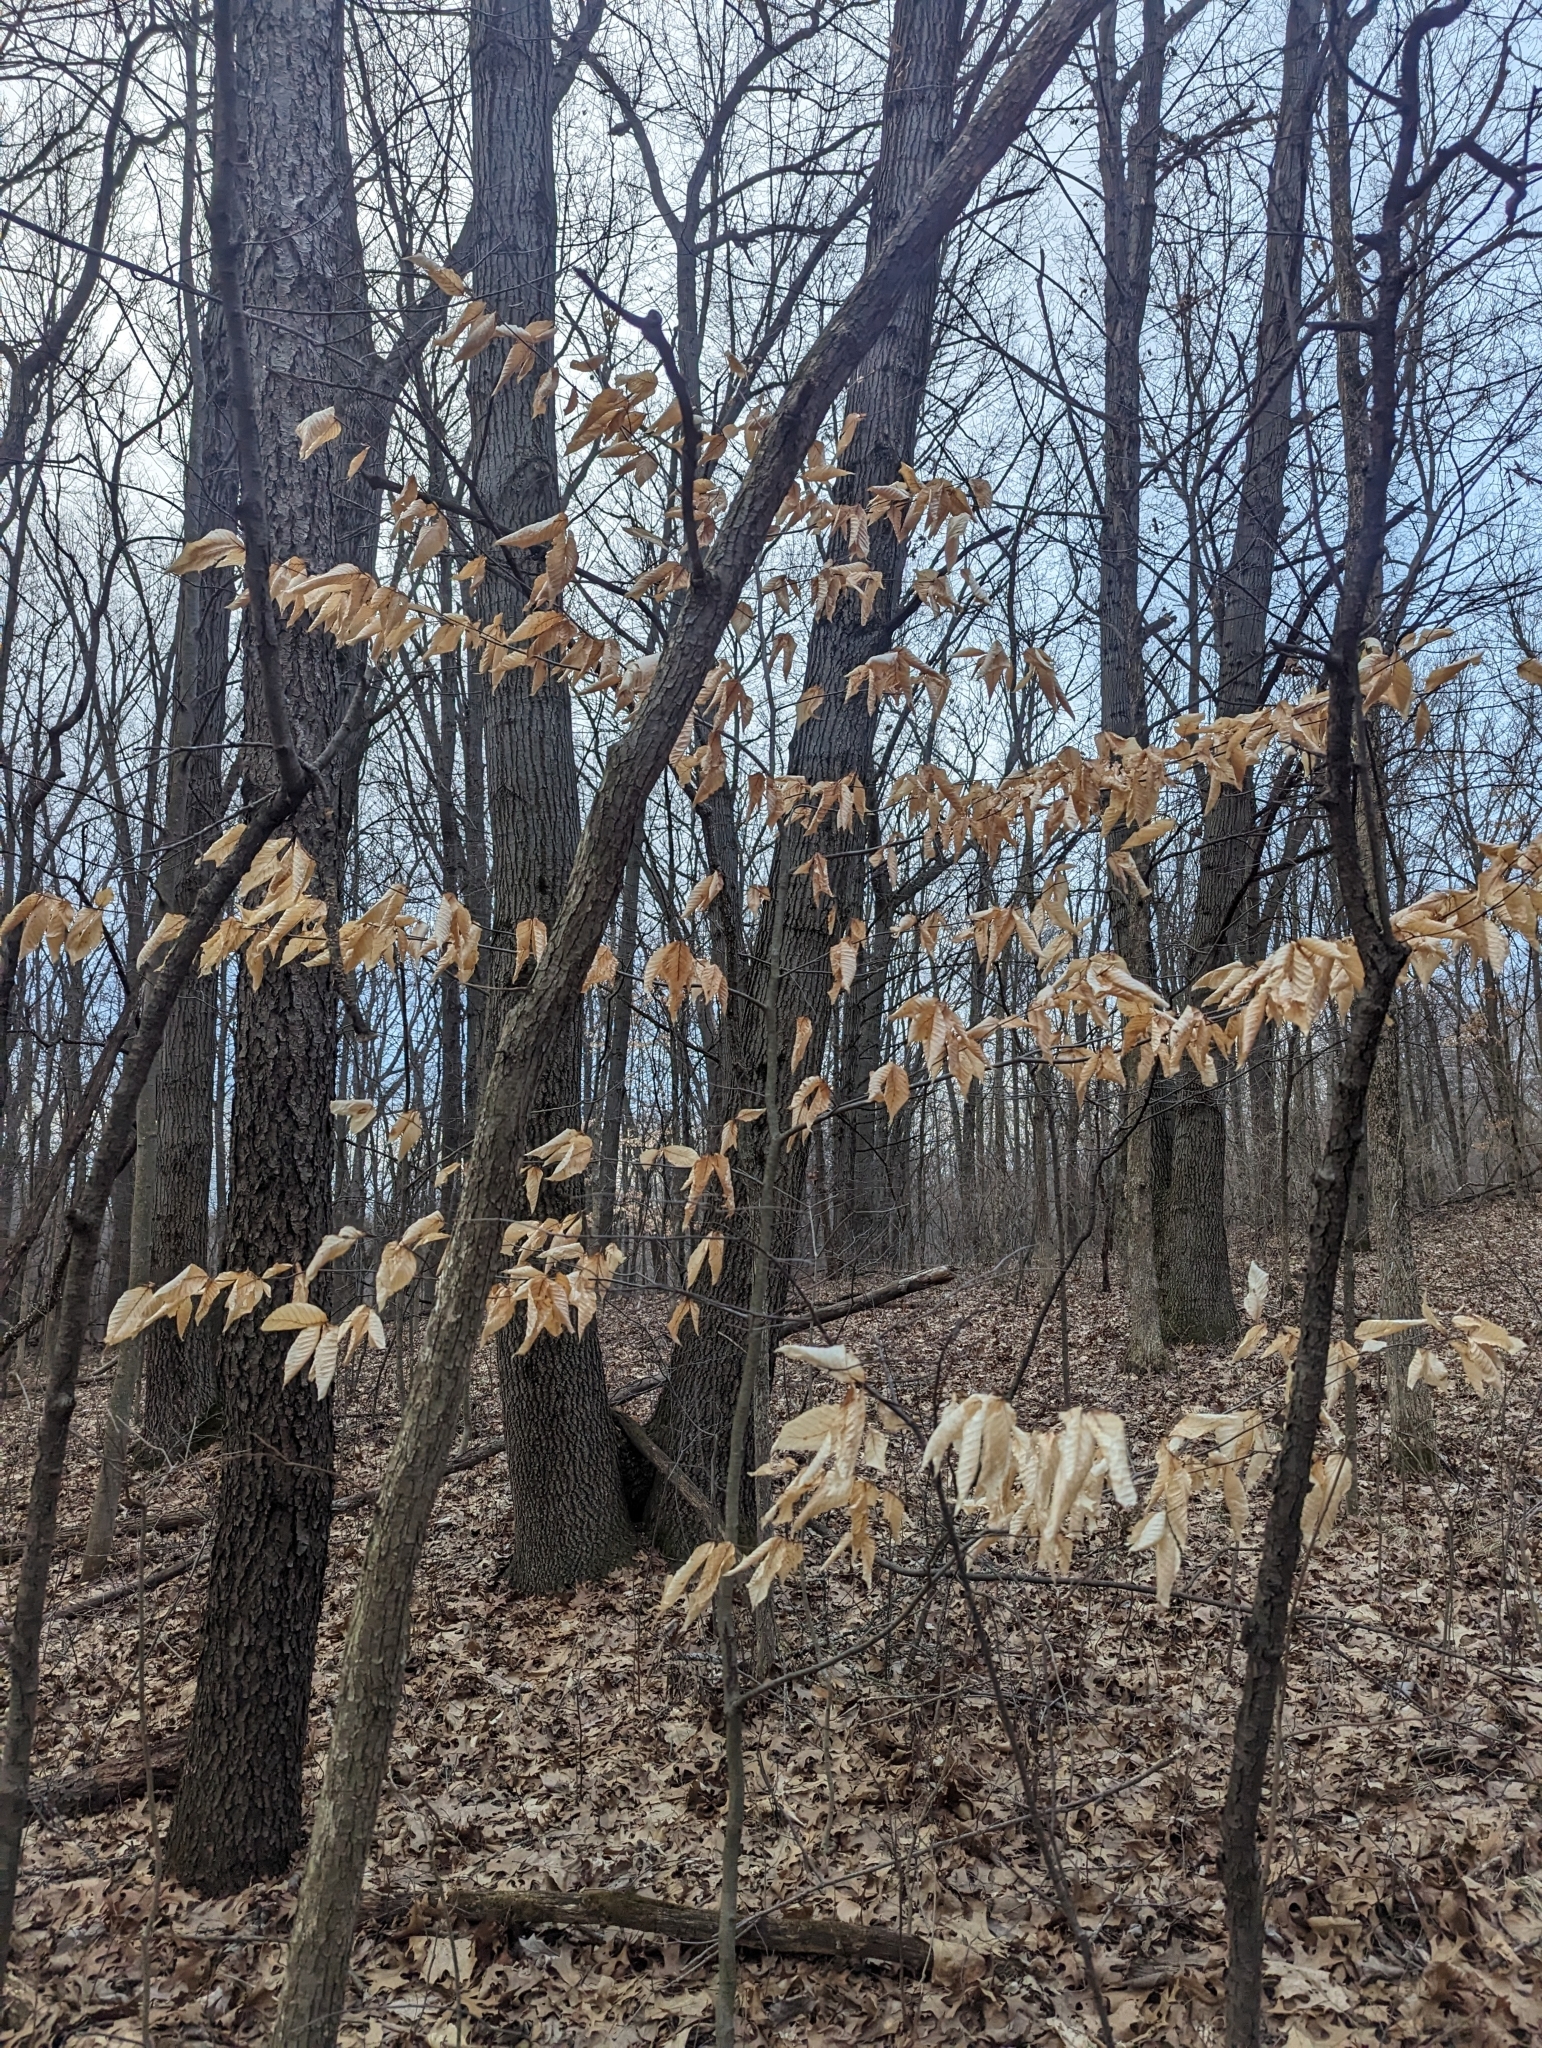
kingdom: Plantae
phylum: Tracheophyta
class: Magnoliopsida
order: Fagales
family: Fagaceae
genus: Fagus
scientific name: Fagus grandifolia
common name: American beech
